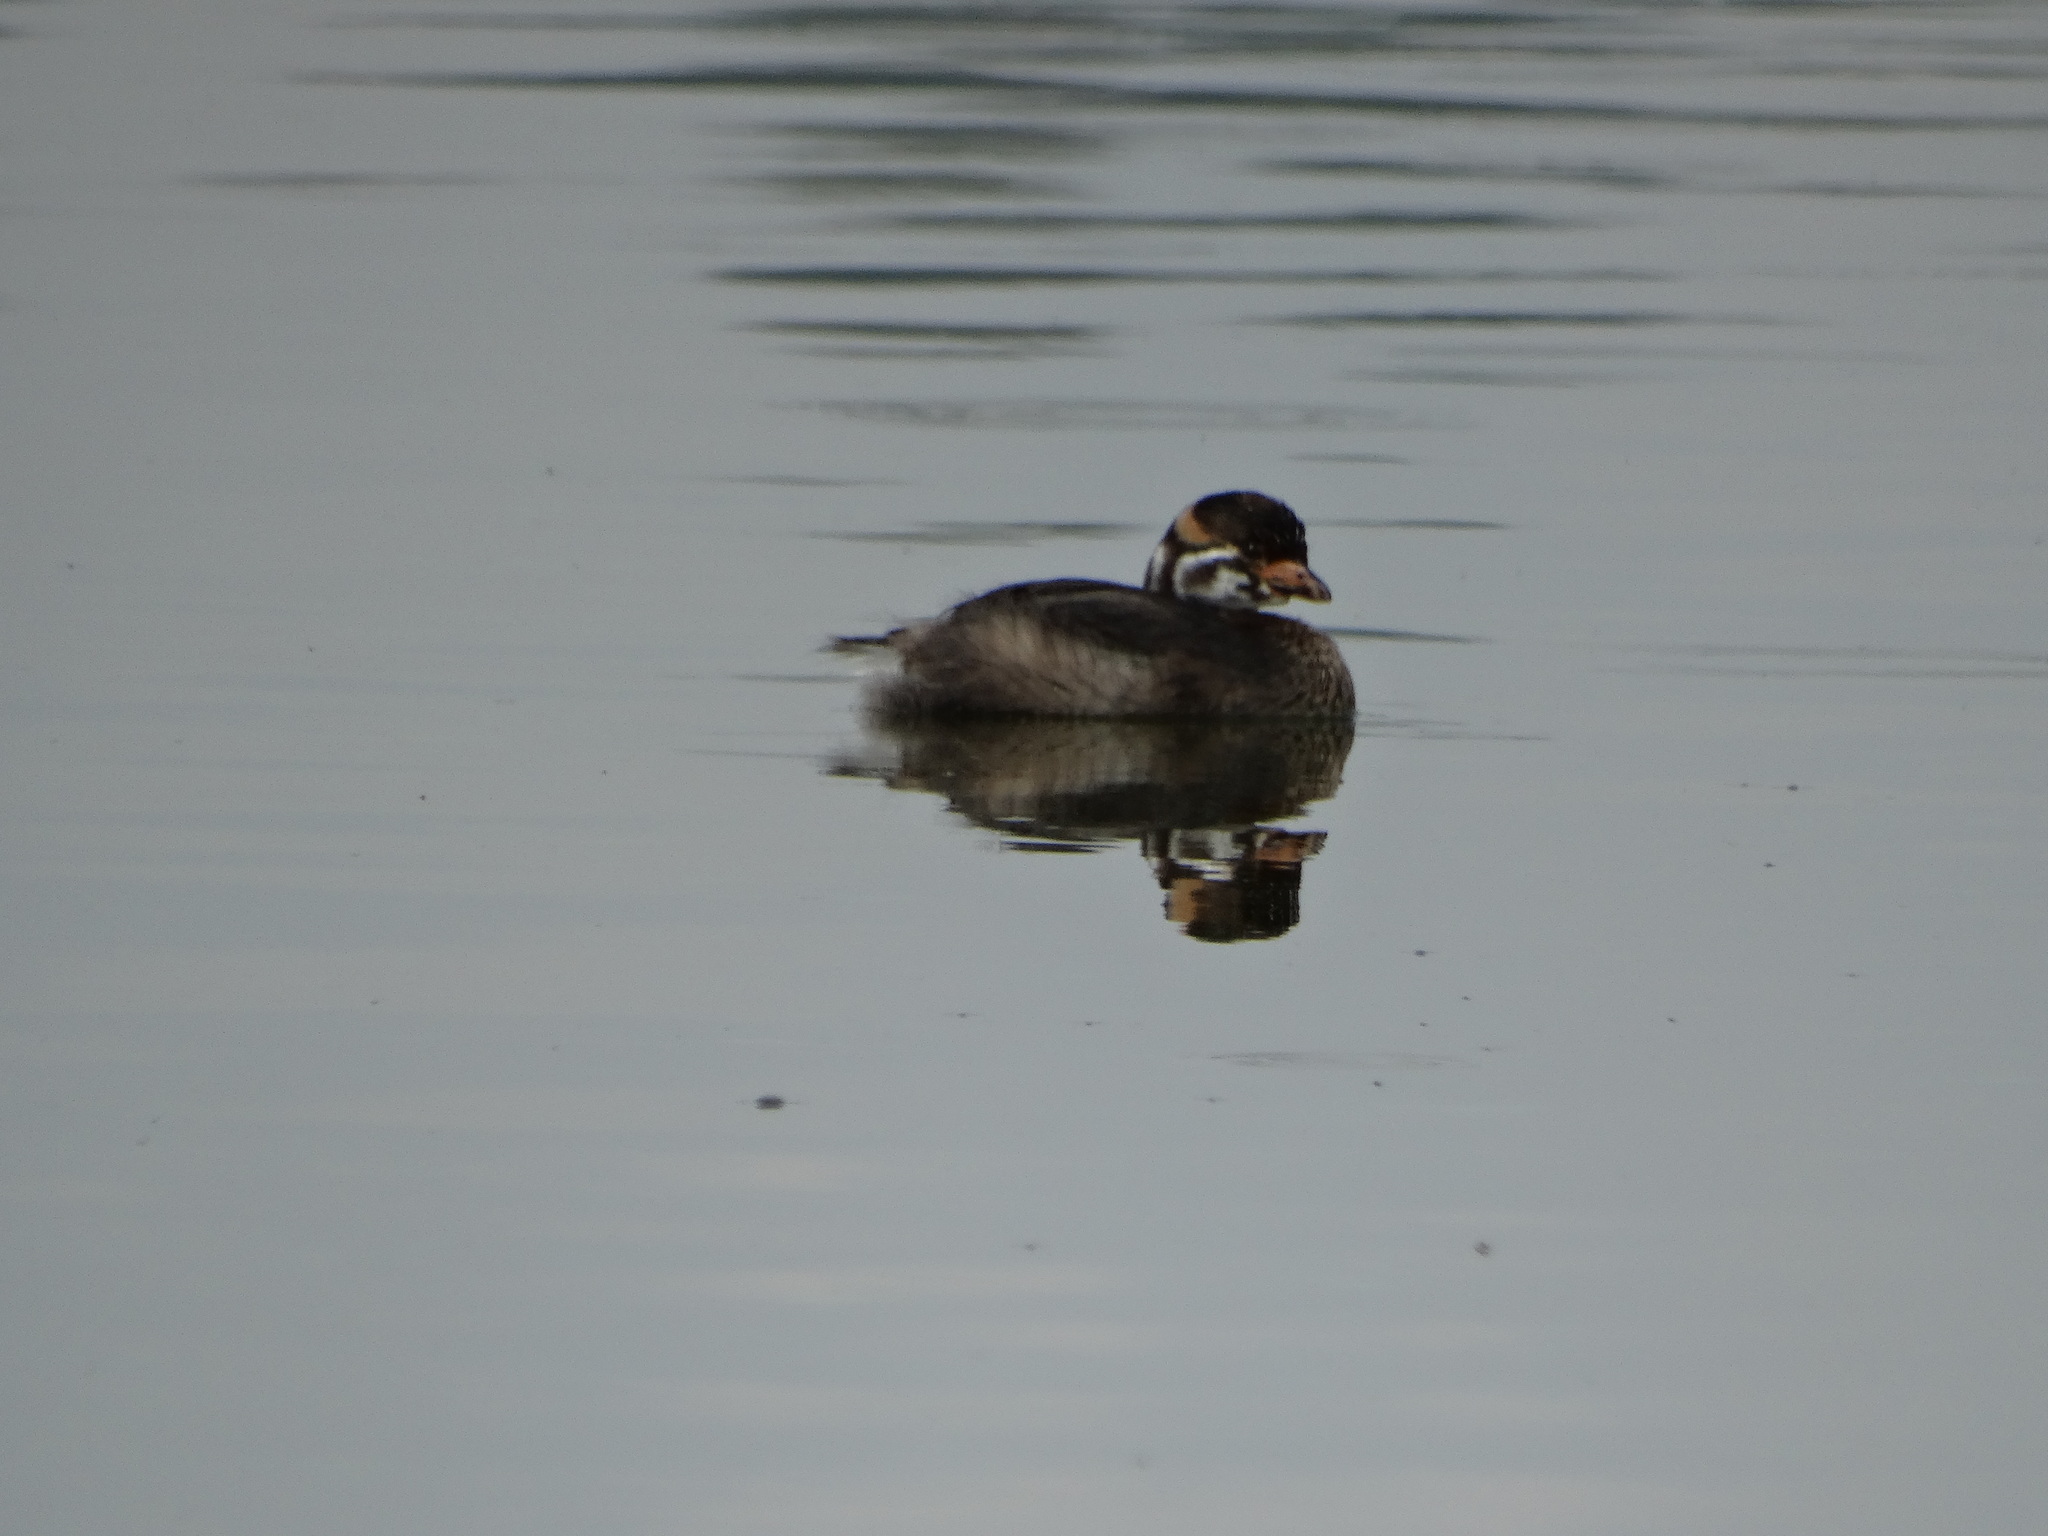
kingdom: Animalia
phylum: Chordata
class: Aves
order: Podicipediformes
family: Podicipedidae
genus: Podilymbus
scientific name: Podilymbus podiceps
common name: Pied-billed grebe
